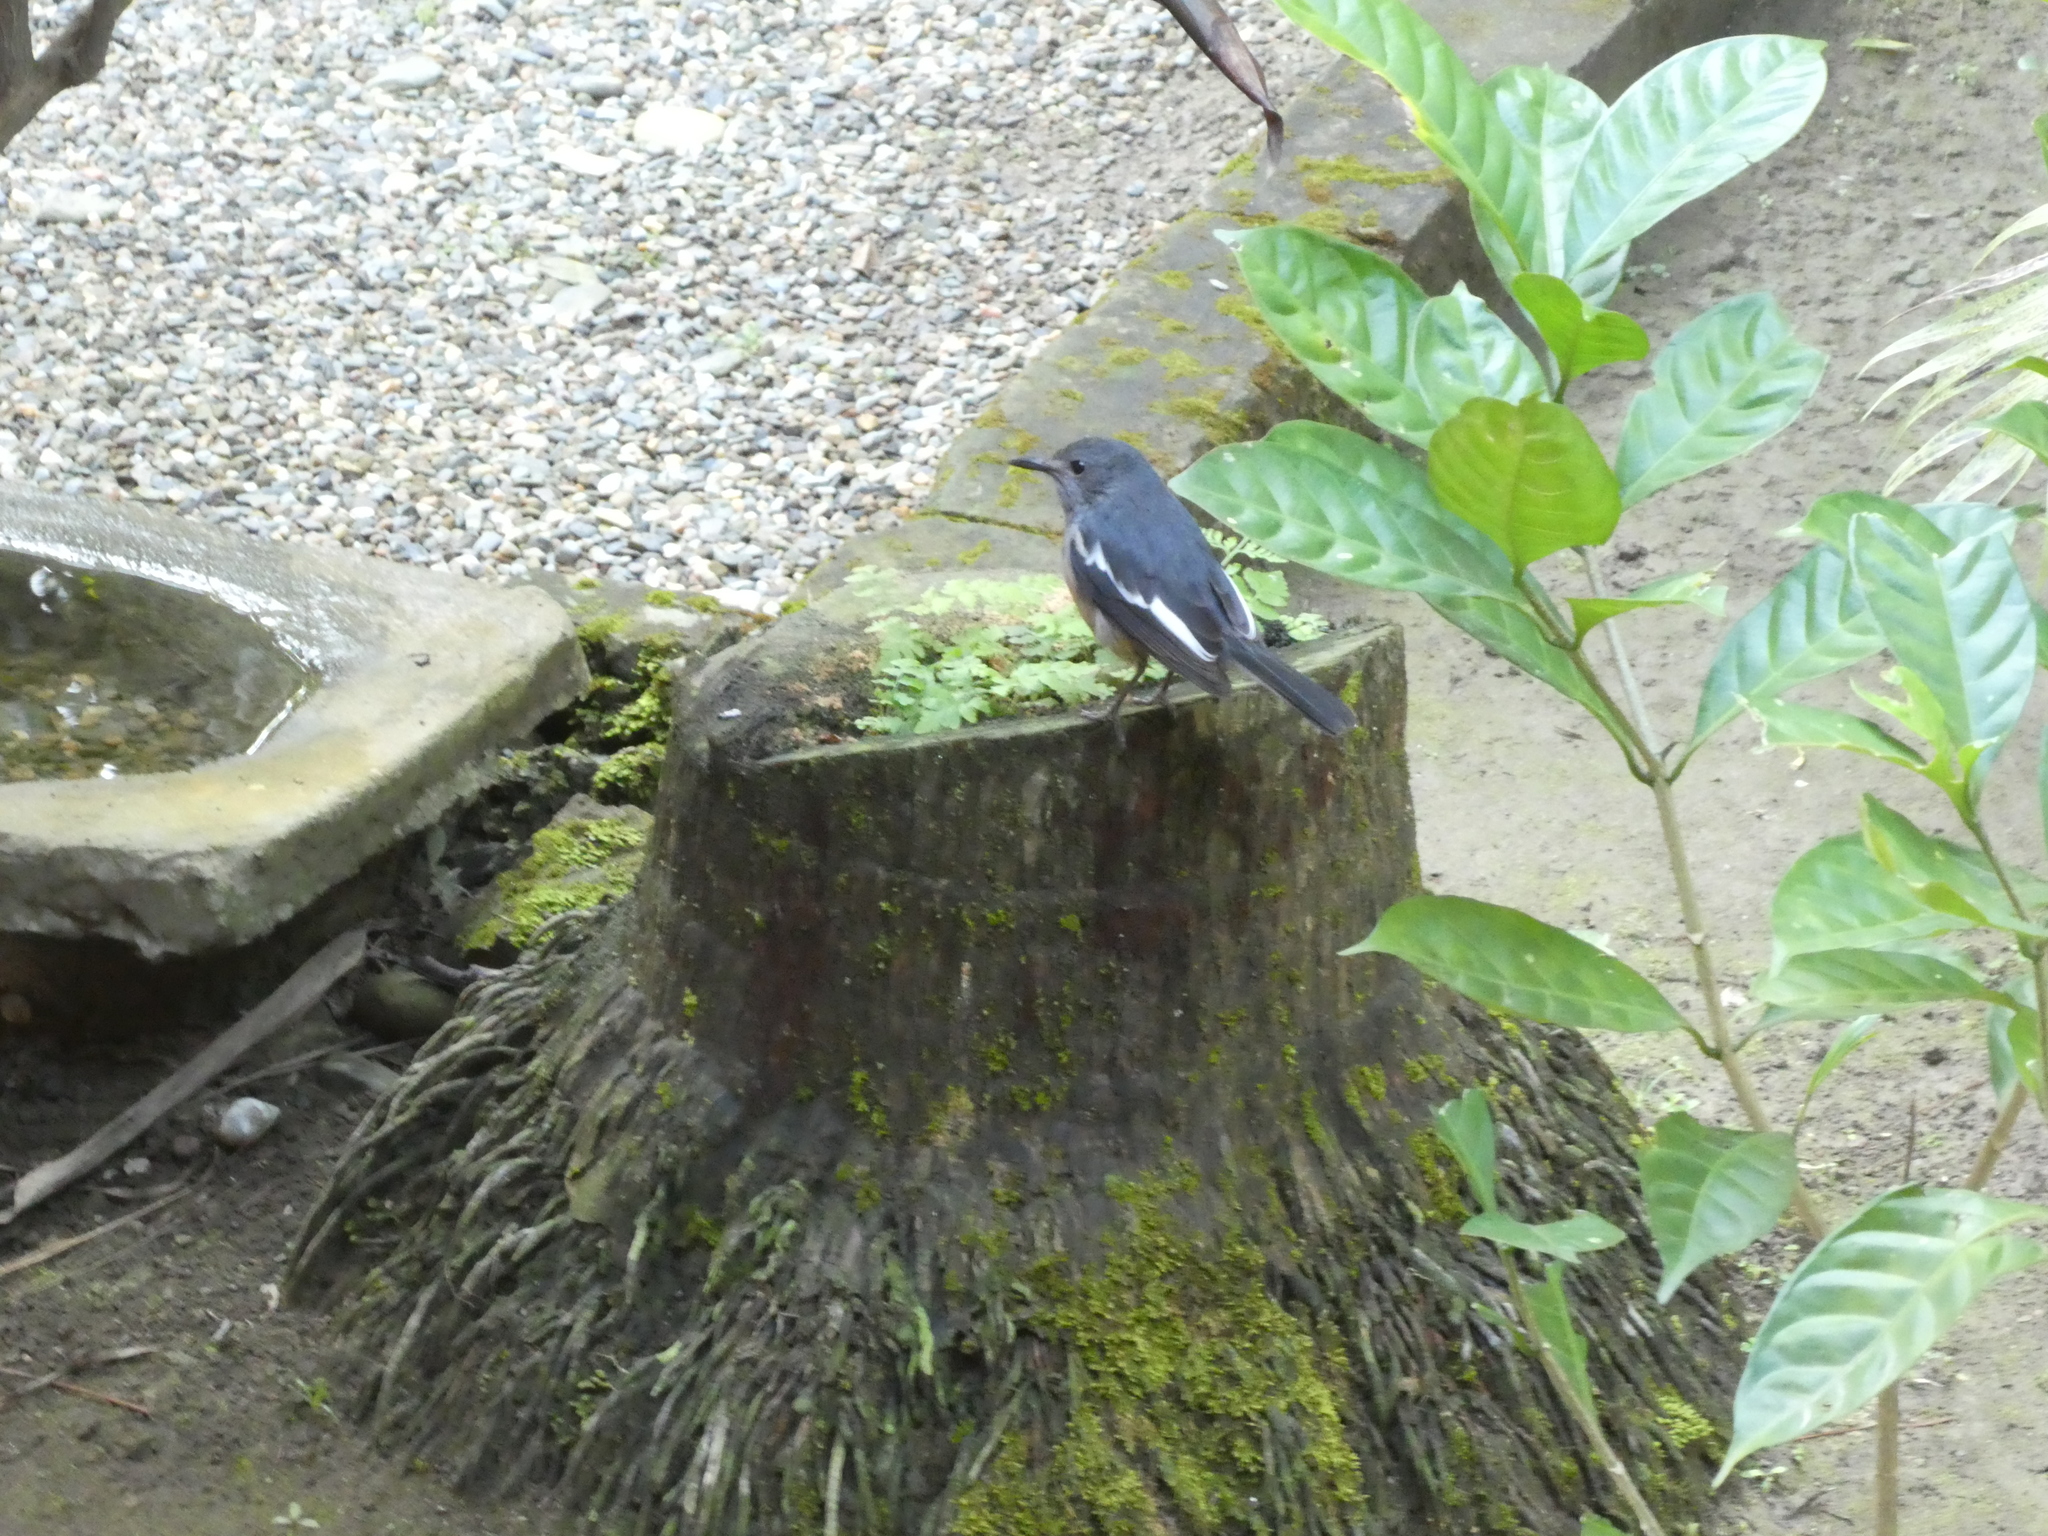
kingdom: Animalia
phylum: Chordata
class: Aves
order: Passeriformes
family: Muscicapidae
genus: Copsychus
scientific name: Copsychus saularis
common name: Oriental magpie-robin
